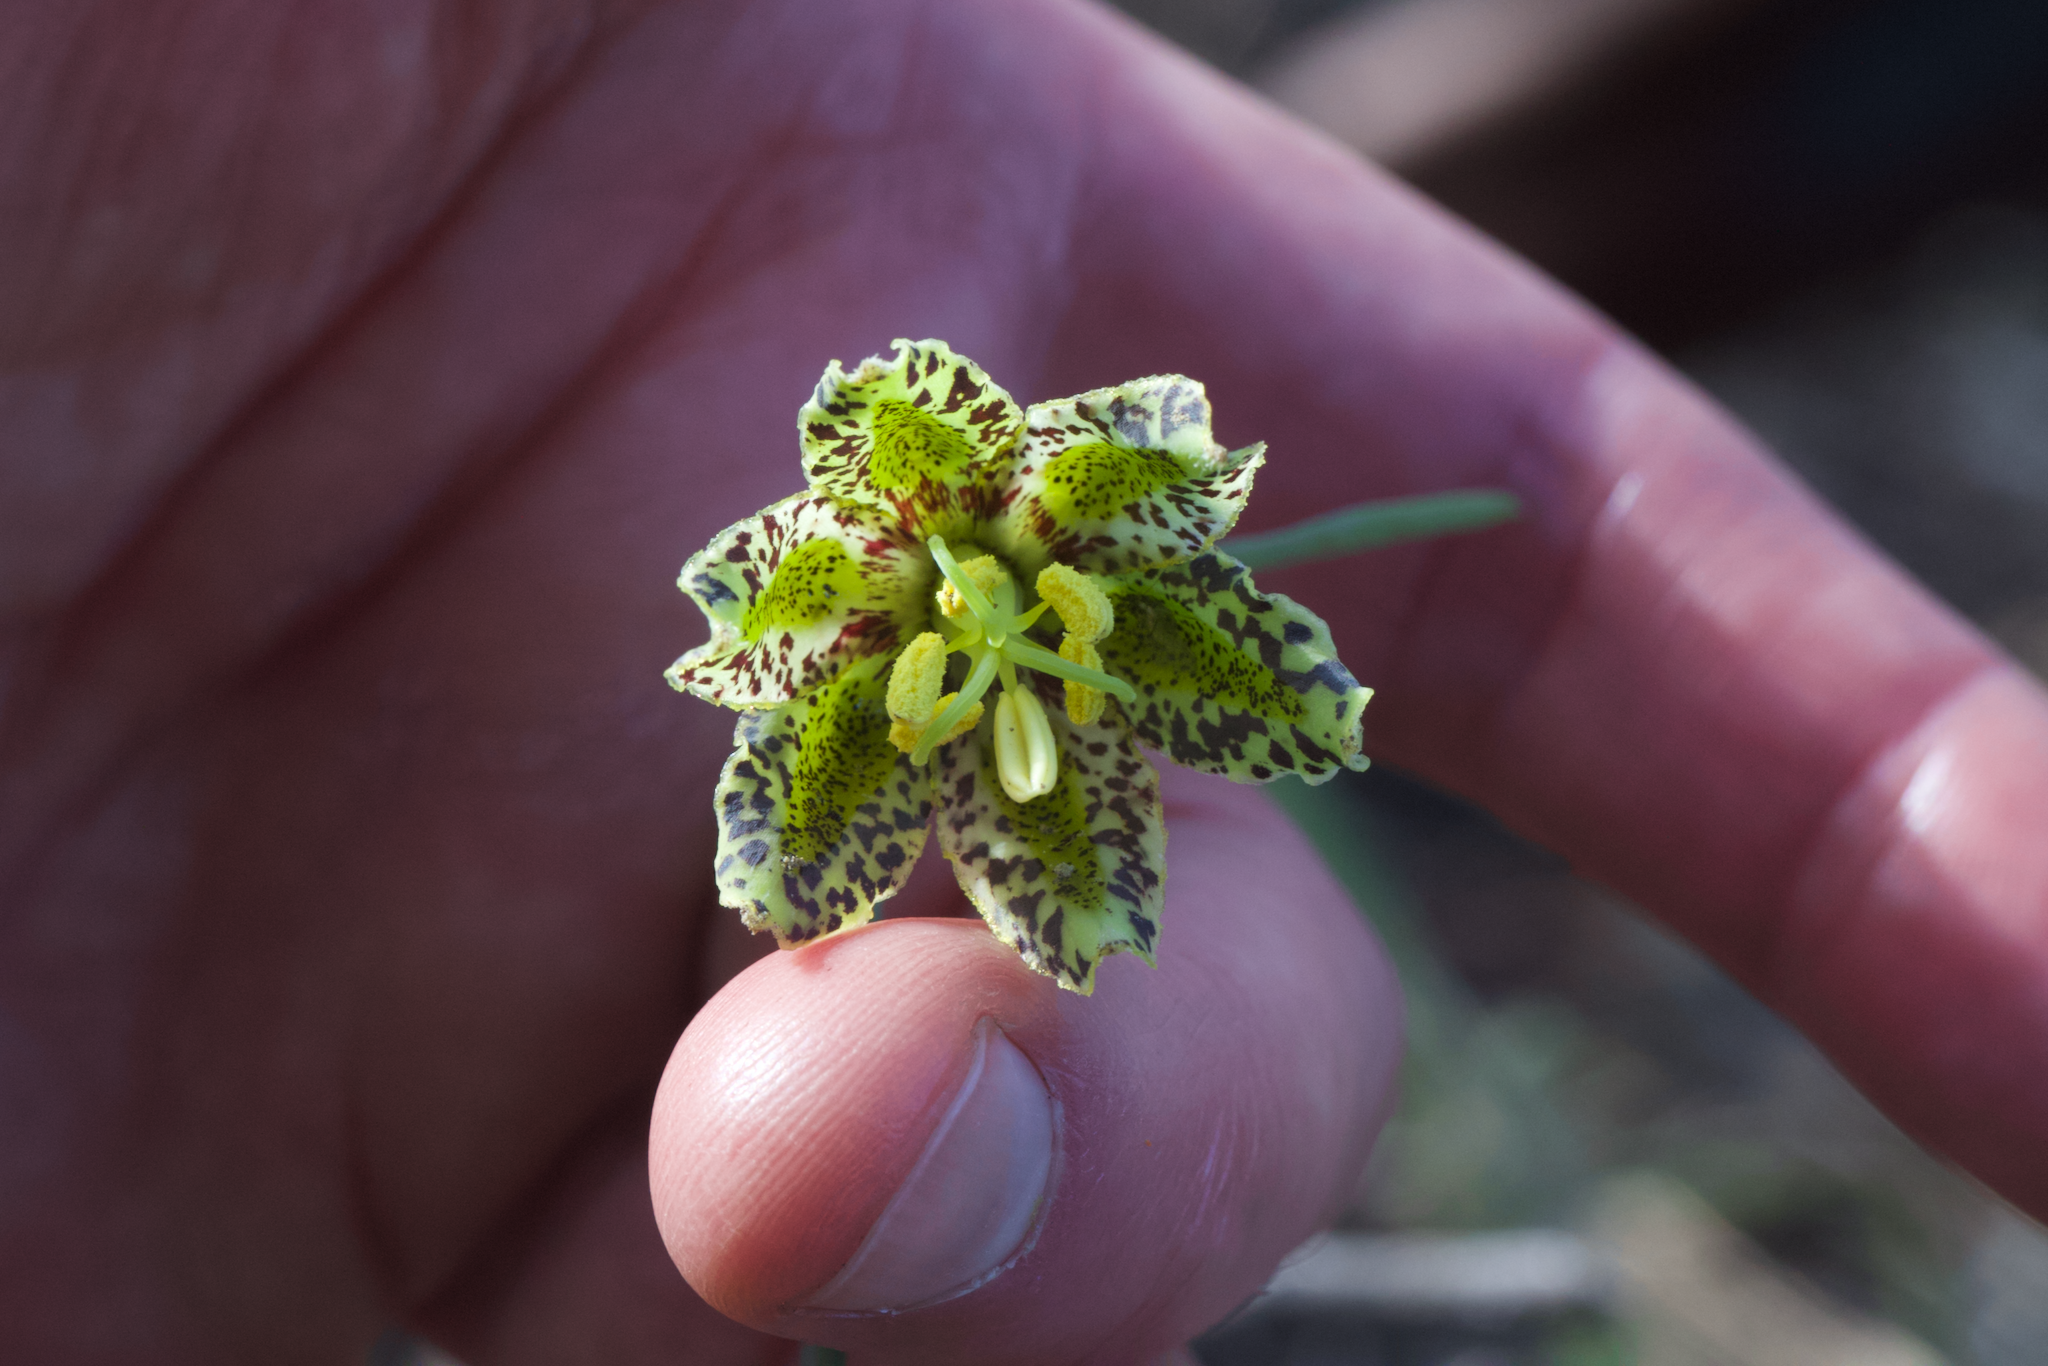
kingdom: Plantae
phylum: Tracheophyta
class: Liliopsida
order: Liliales
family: Liliaceae
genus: Fritillaria
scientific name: Fritillaria affinis
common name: Ojai fritillary
